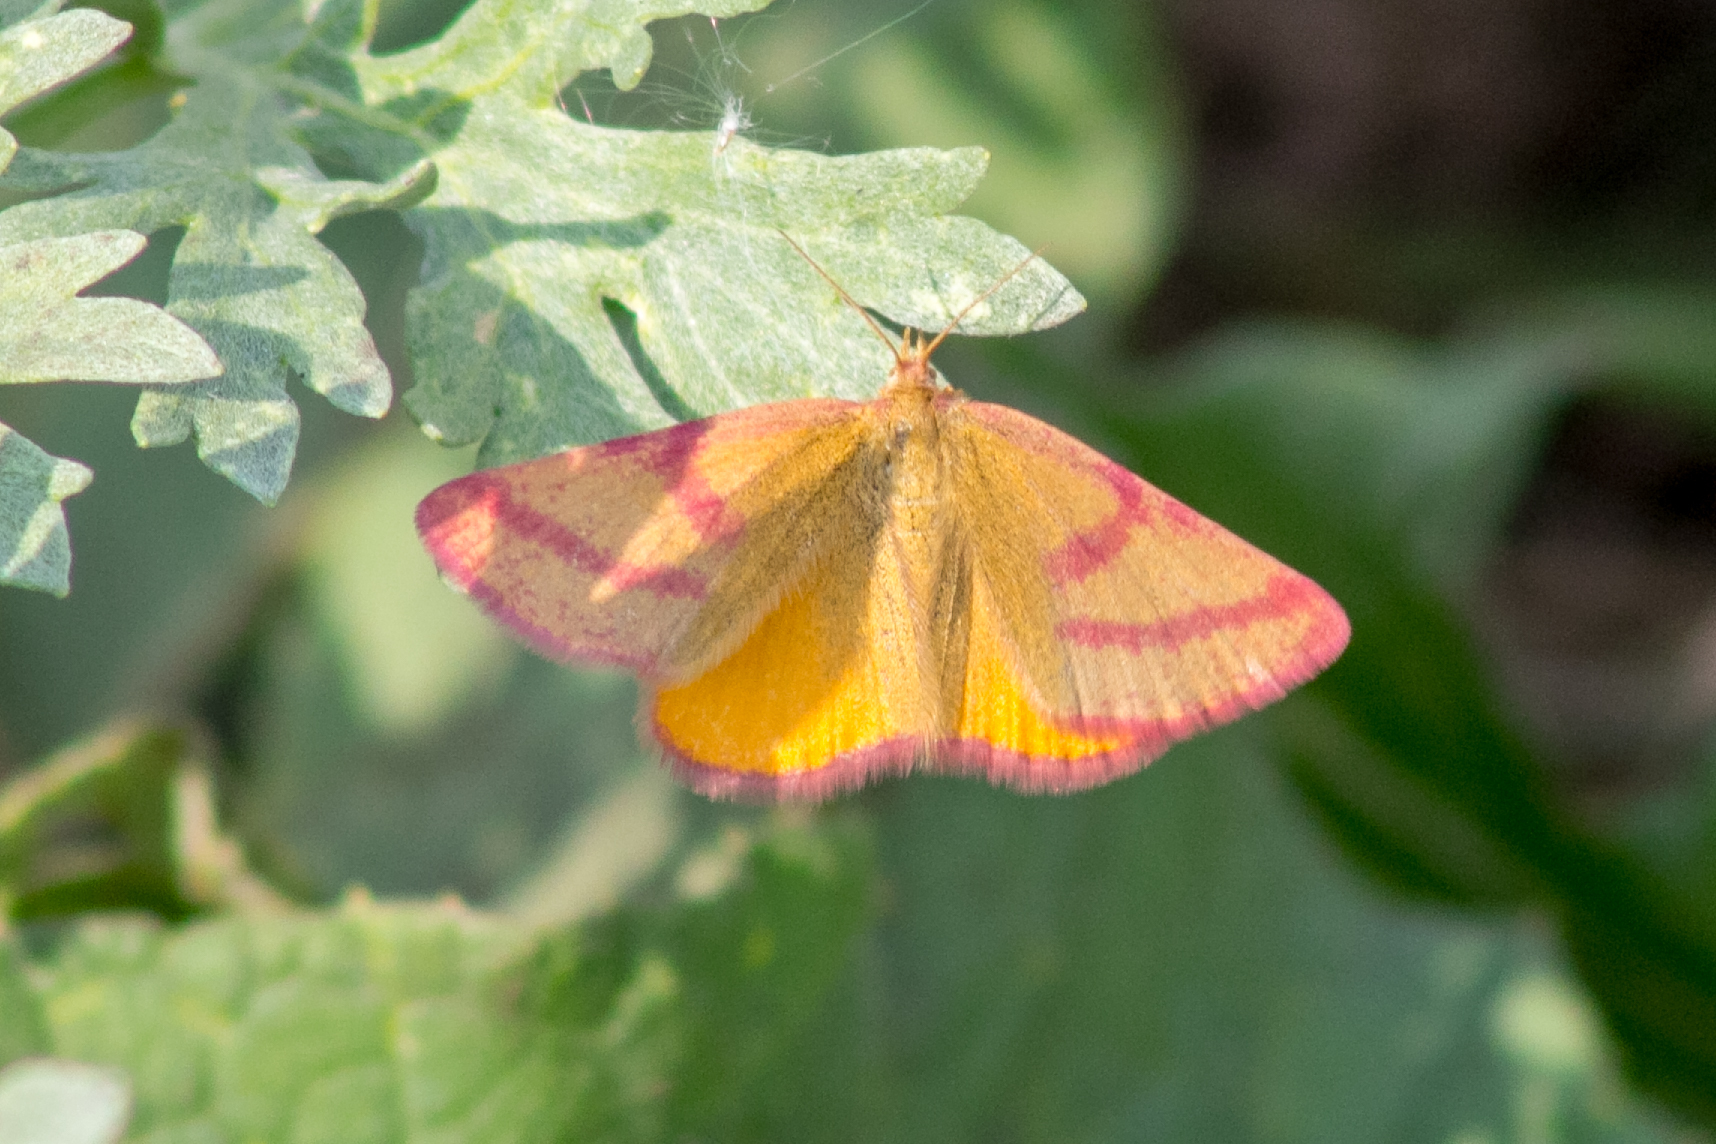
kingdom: Animalia
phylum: Arthropoda
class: Insecta
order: Lepidoptera
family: Geometridae
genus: Lythria
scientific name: Lythria purpuraria
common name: Purple-barred yellow
